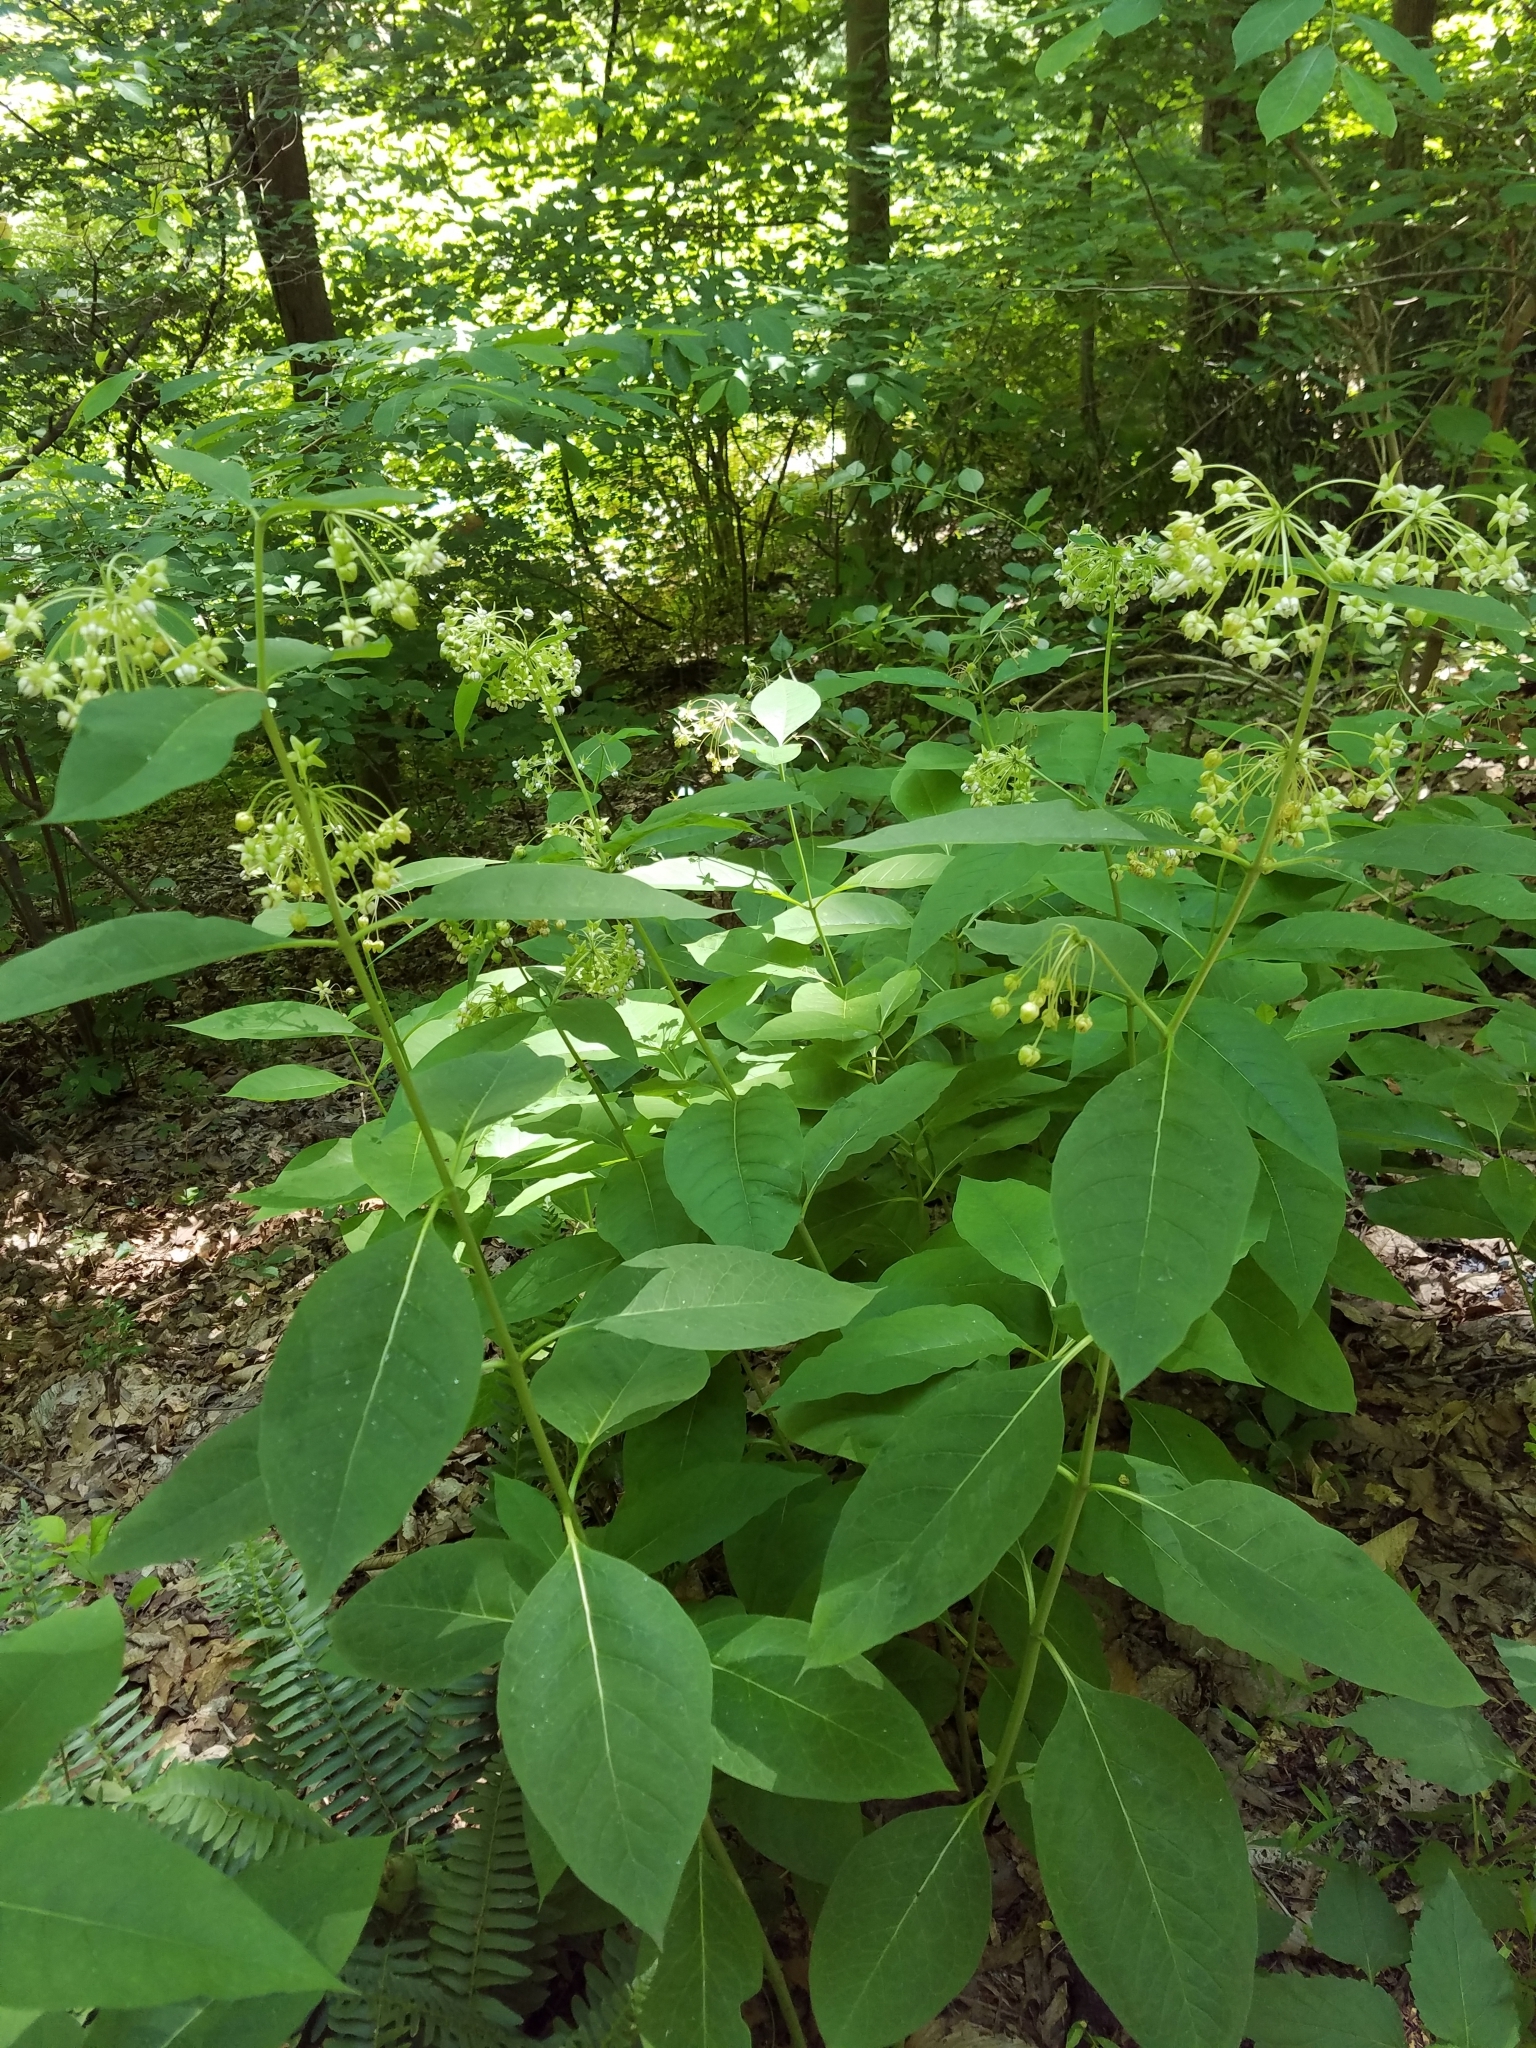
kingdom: Plantae
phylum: Tracheophyta
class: Magnoliopsida
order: Gentianales
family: Apocynaceae
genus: Asclepias
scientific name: Asclepias exaltata
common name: Poke milkweed
